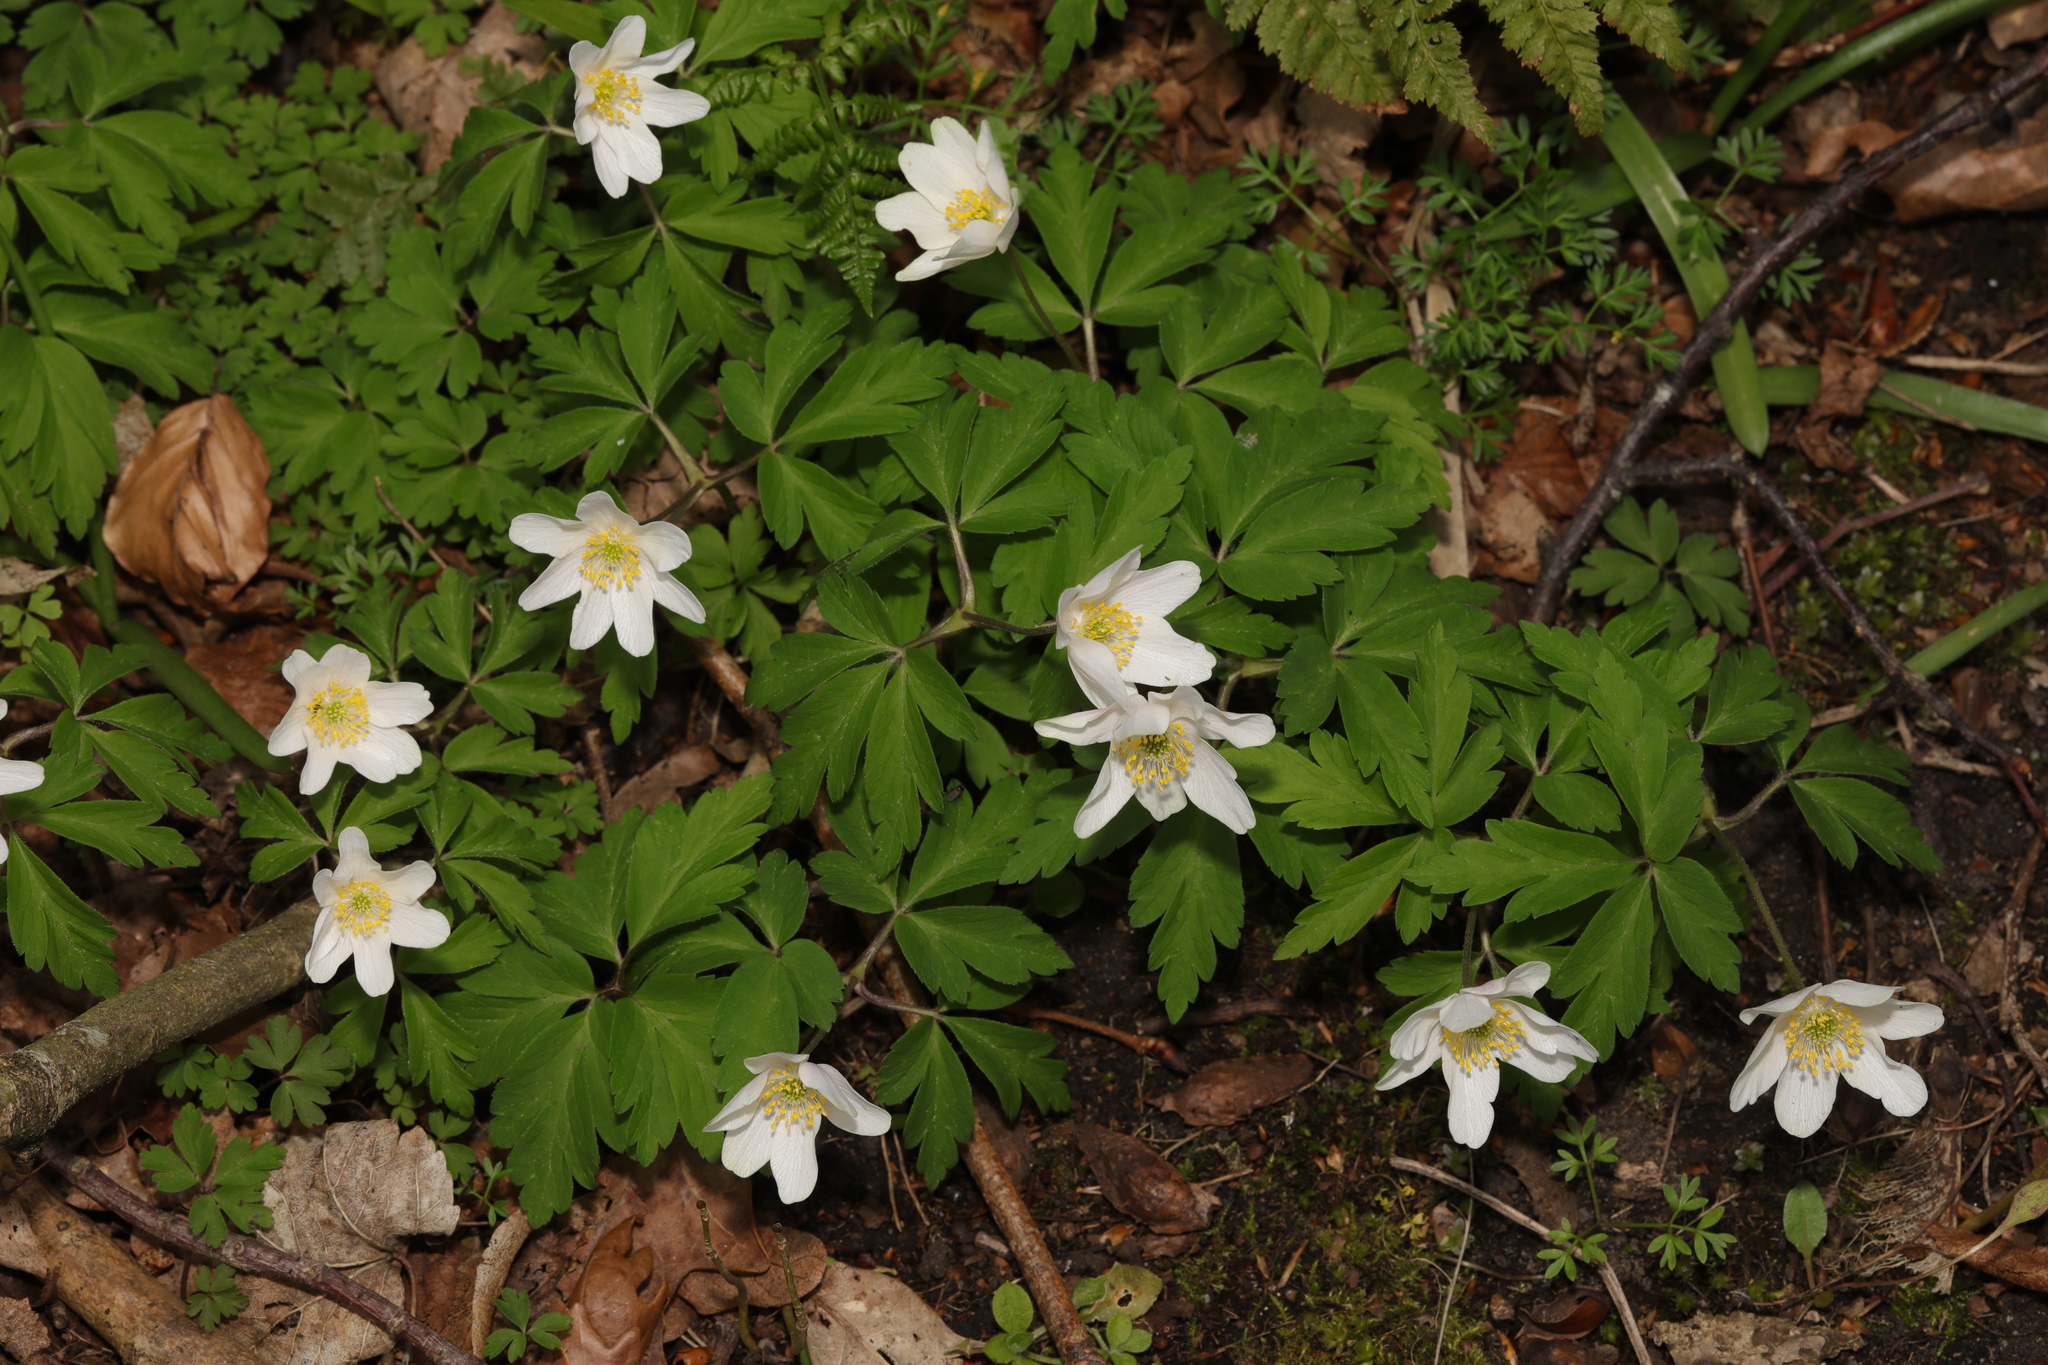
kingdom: Plantae
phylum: Tracheophyta
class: Magnoliopsida
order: Ranunculales
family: Ranunculaceae
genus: Anemone
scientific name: Anemone nemorosa
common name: Wood anemone
